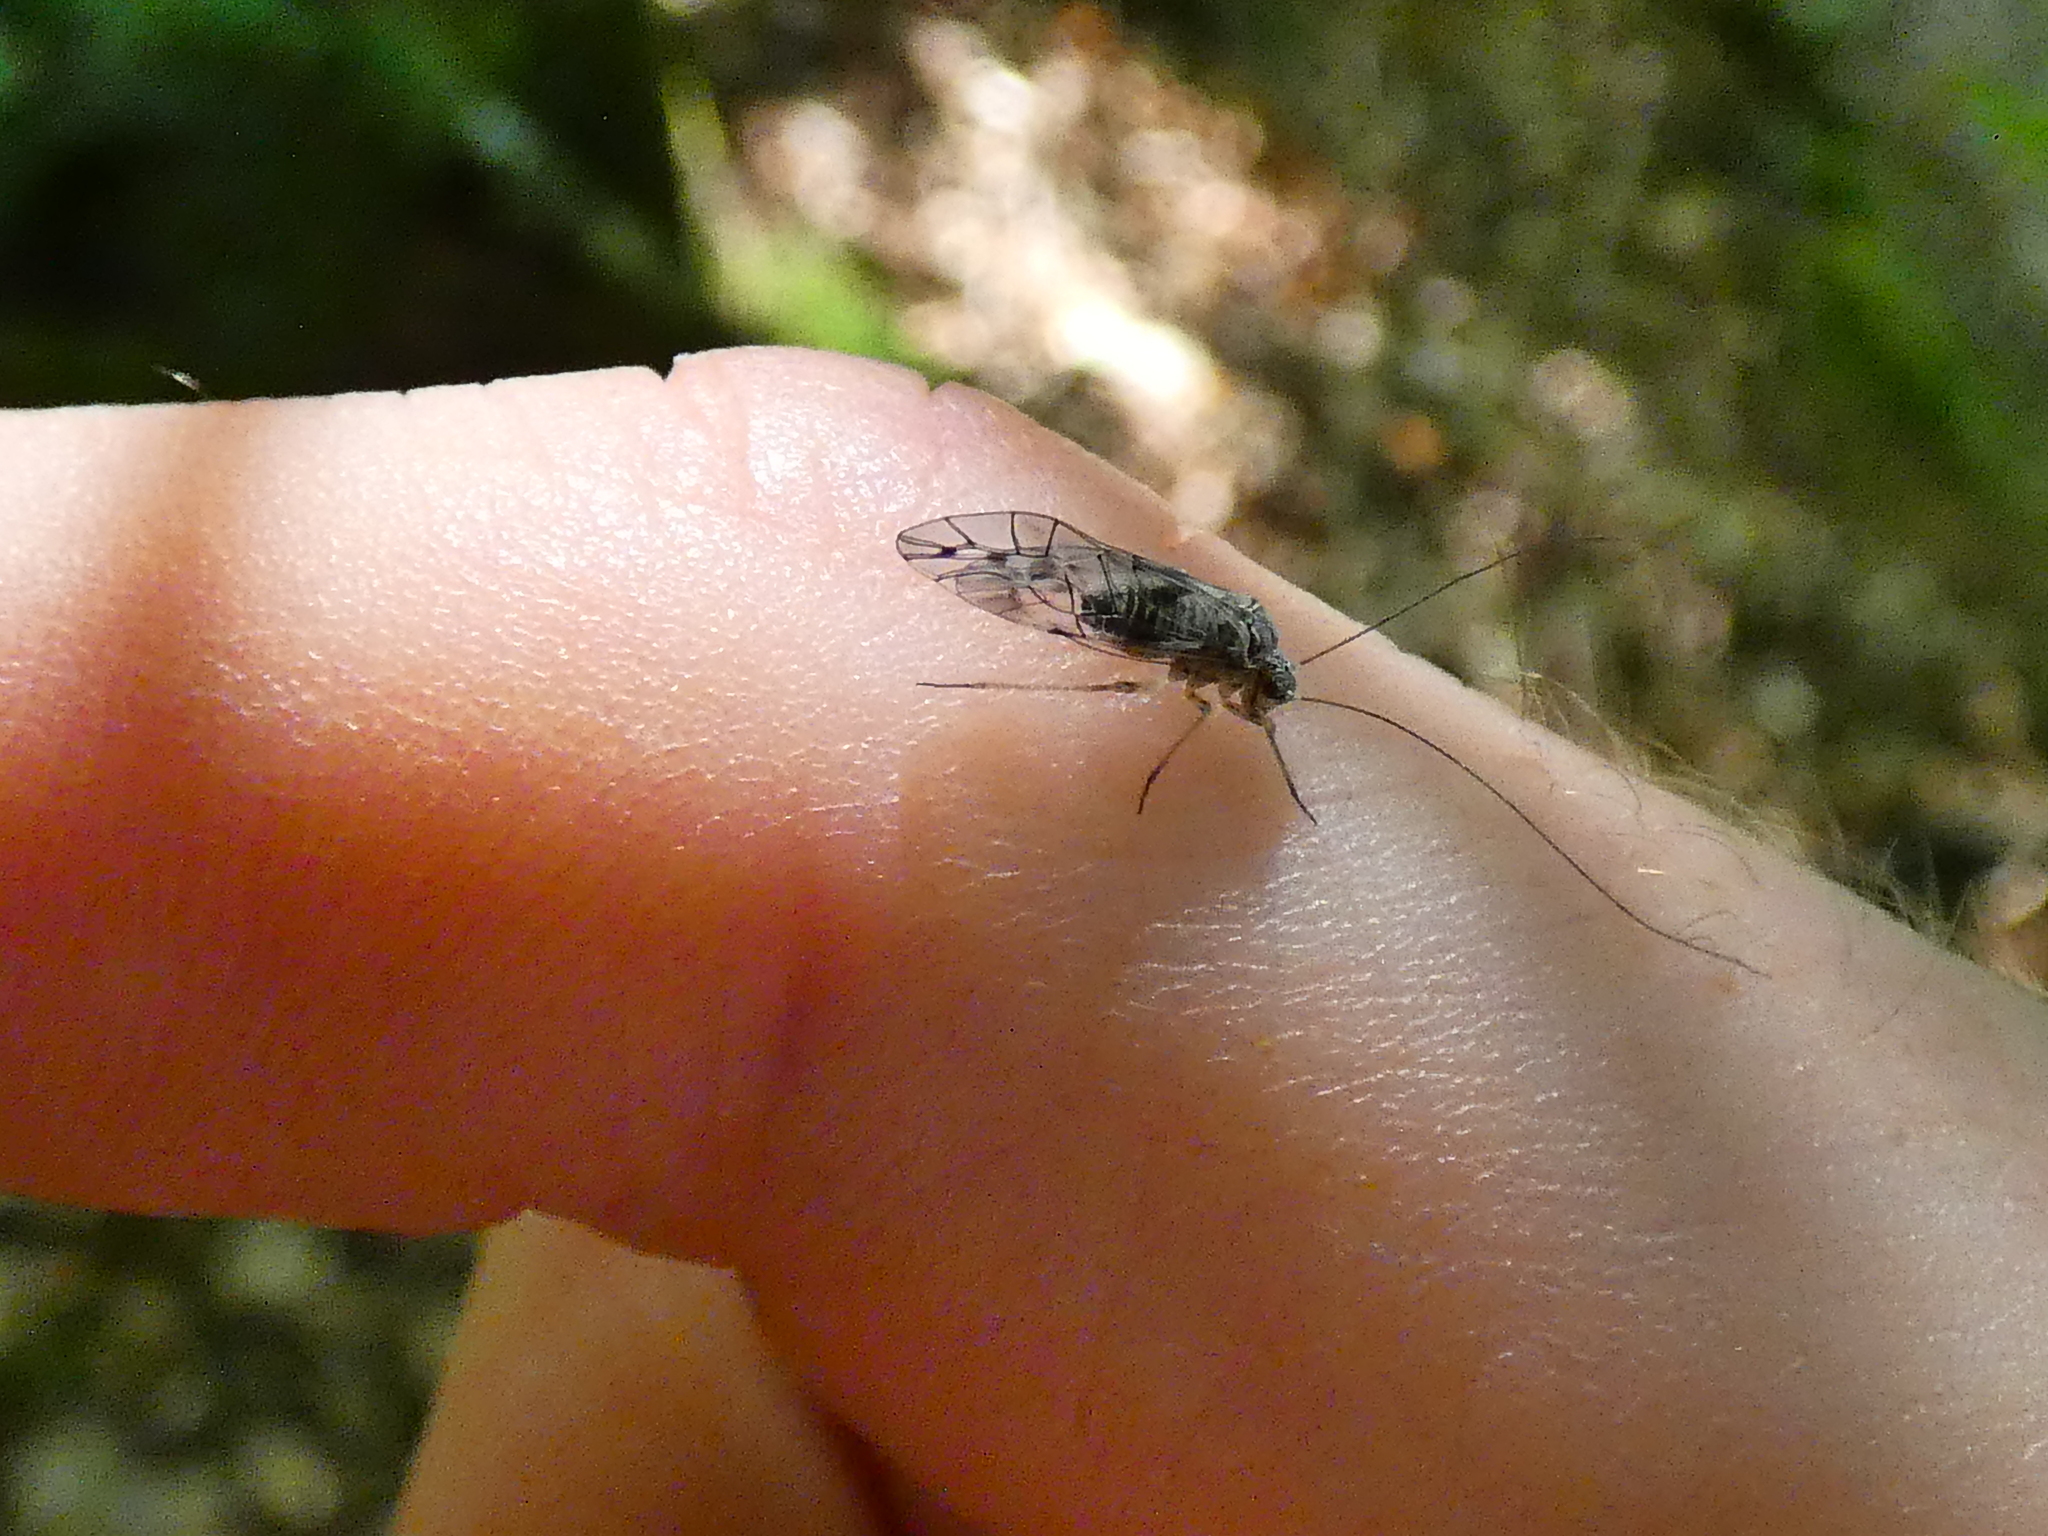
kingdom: Animalia
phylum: Arthropoda
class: Insecta
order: Psocodea
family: Psocidae
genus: Psococerastis
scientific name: Psococerastis gibbosa
